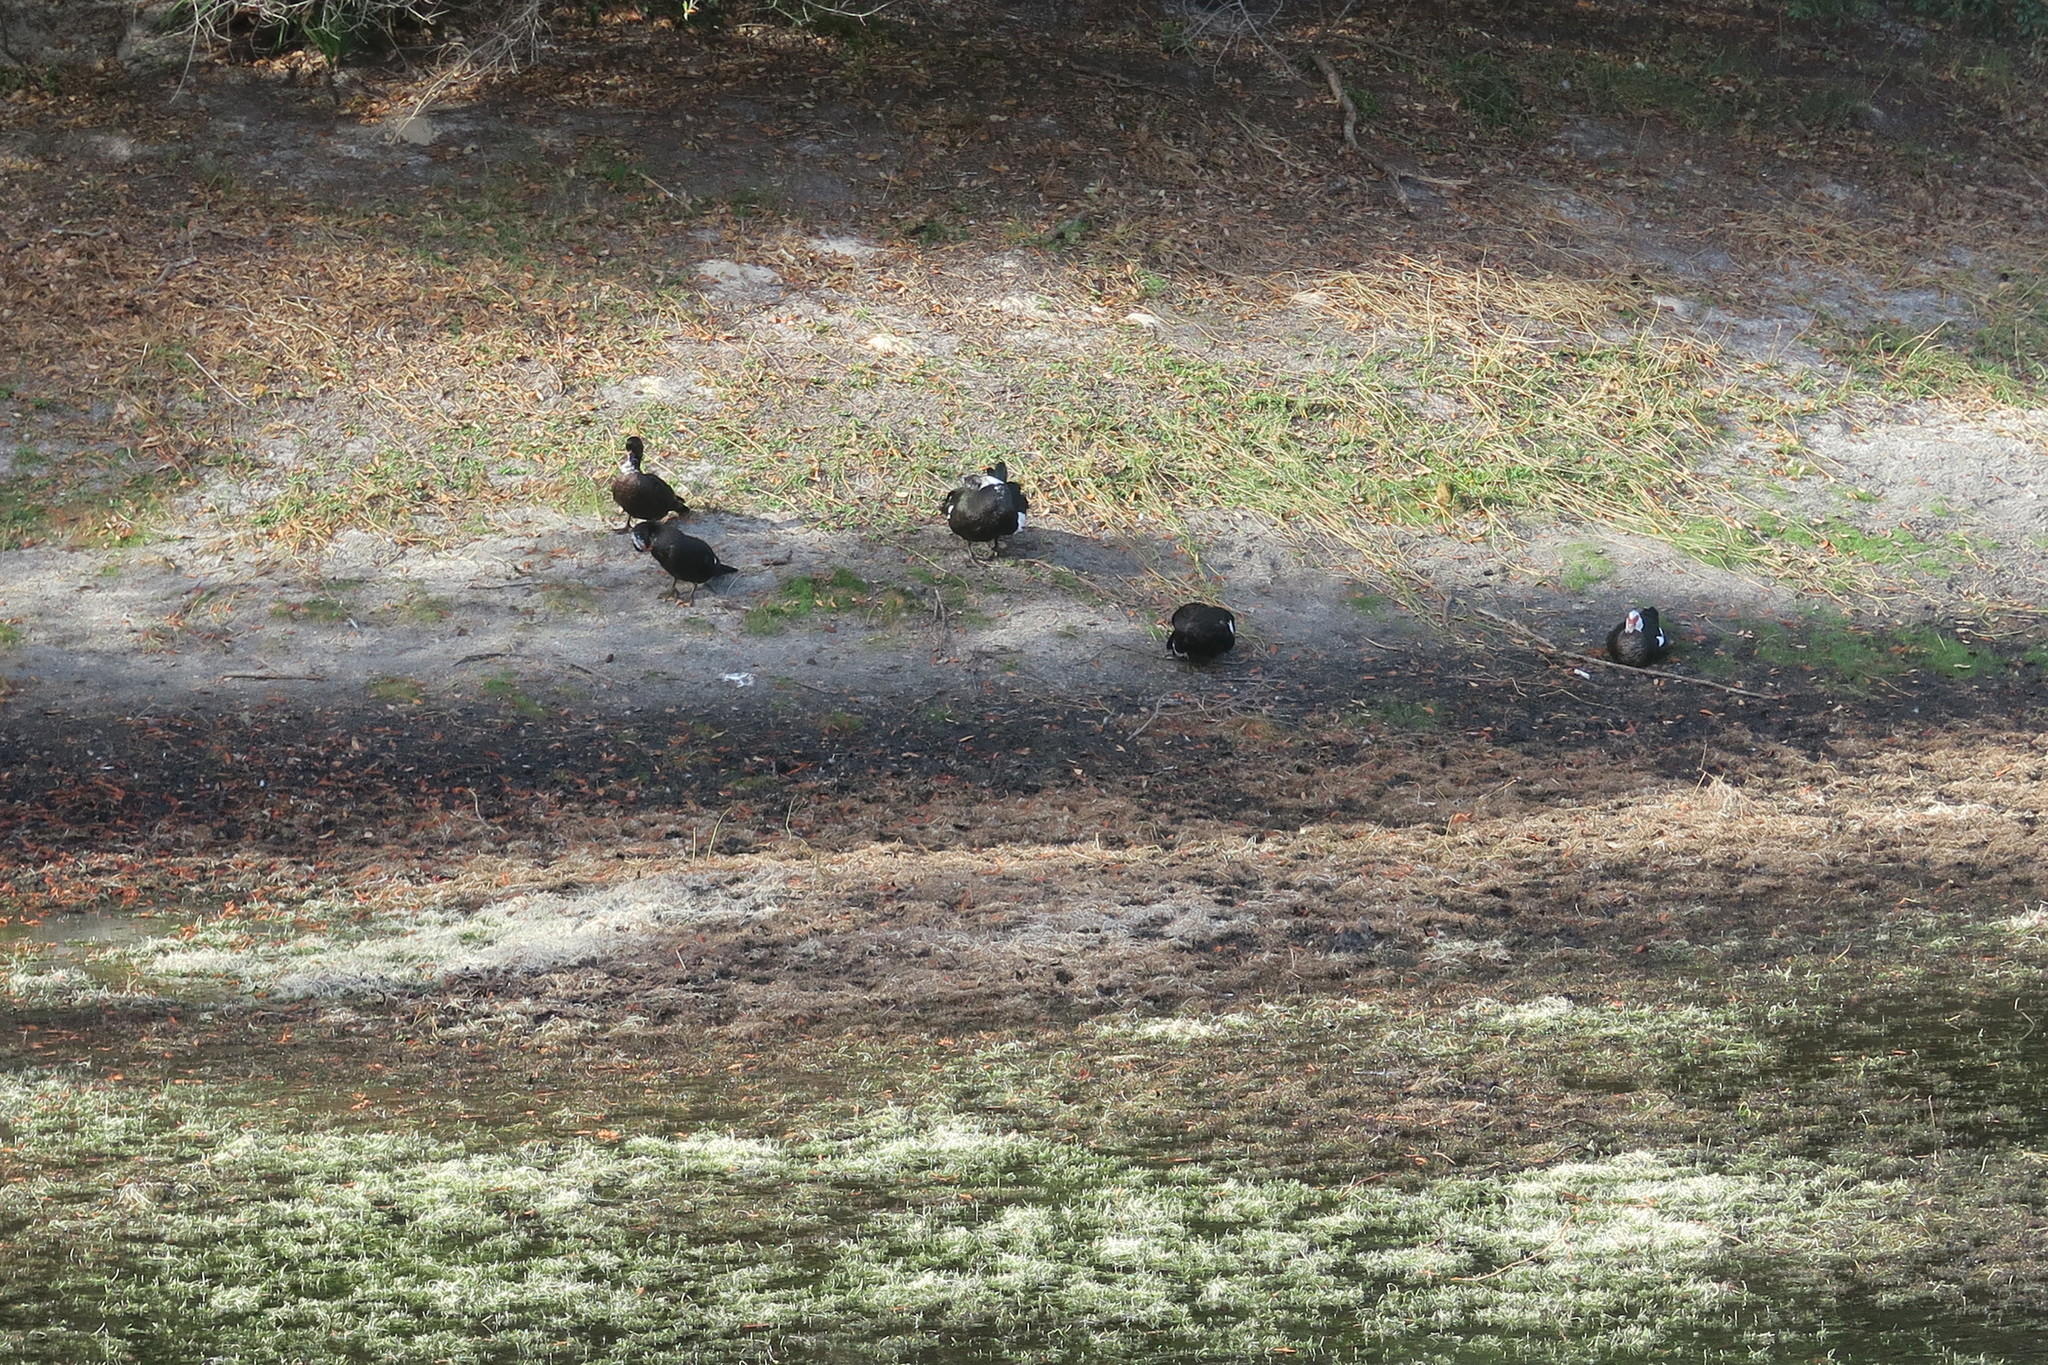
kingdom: Animalia
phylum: Chordata
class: Aves
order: Anseriformes
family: Anatidae
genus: Cairina
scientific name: Cairina moschata
